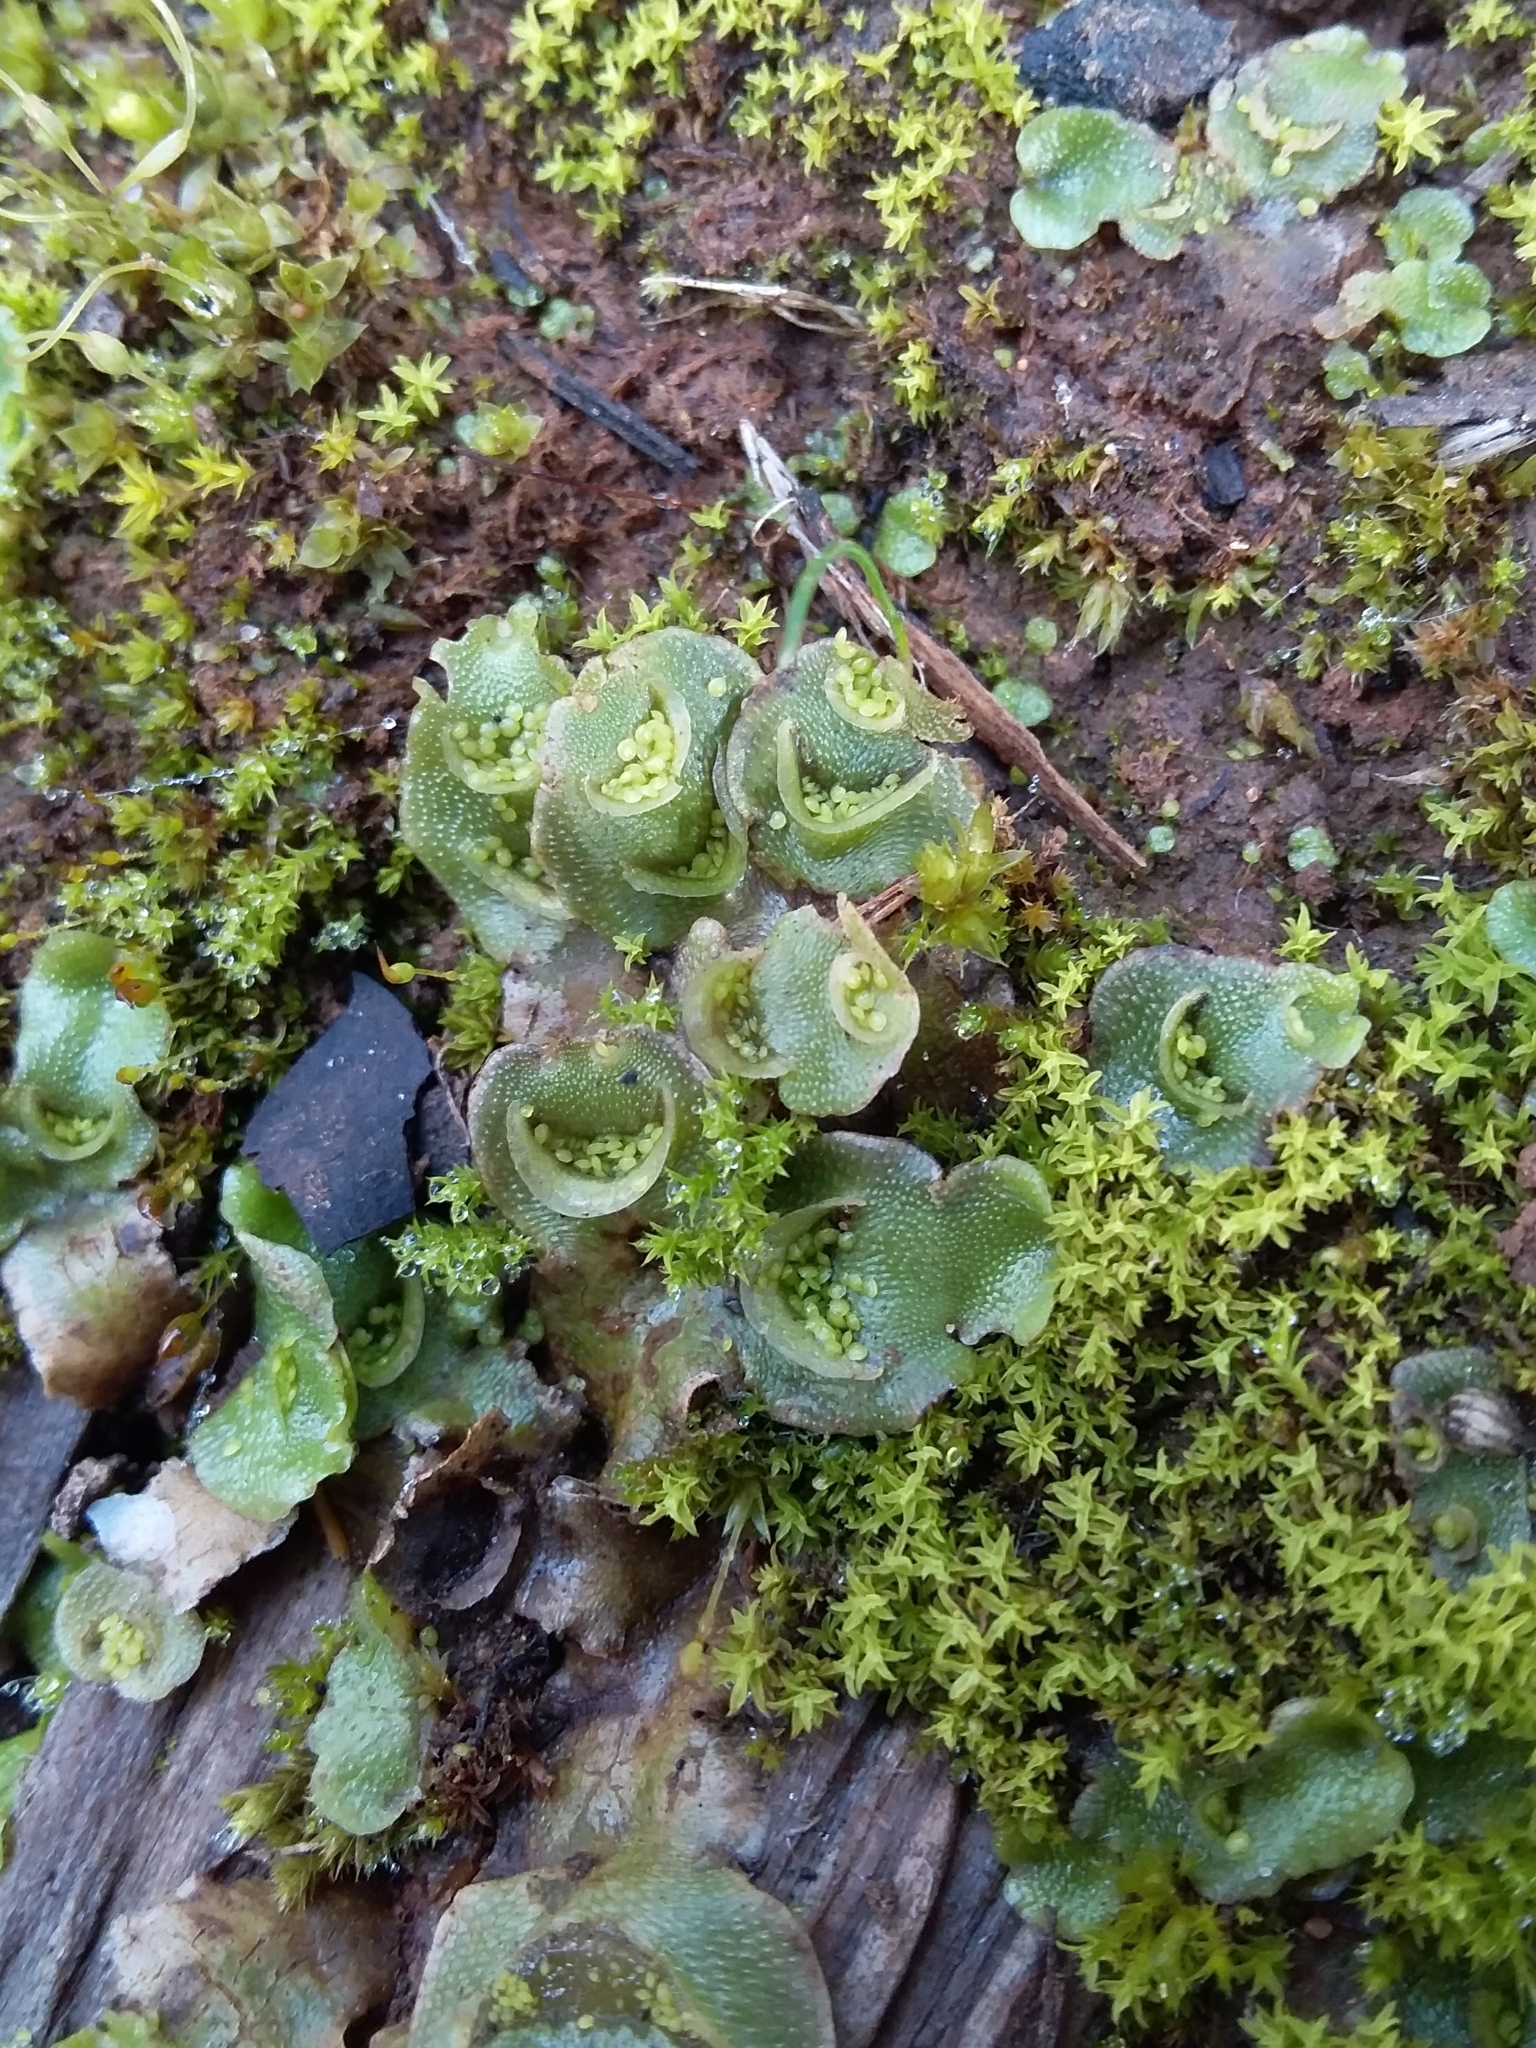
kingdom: Plantae
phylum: Marchantiophyta
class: Marchantiopsida
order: Lunulariales
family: Lunulariaceae
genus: Lunularia
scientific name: Lunularia cruciata
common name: Crescent-cup liverwort
